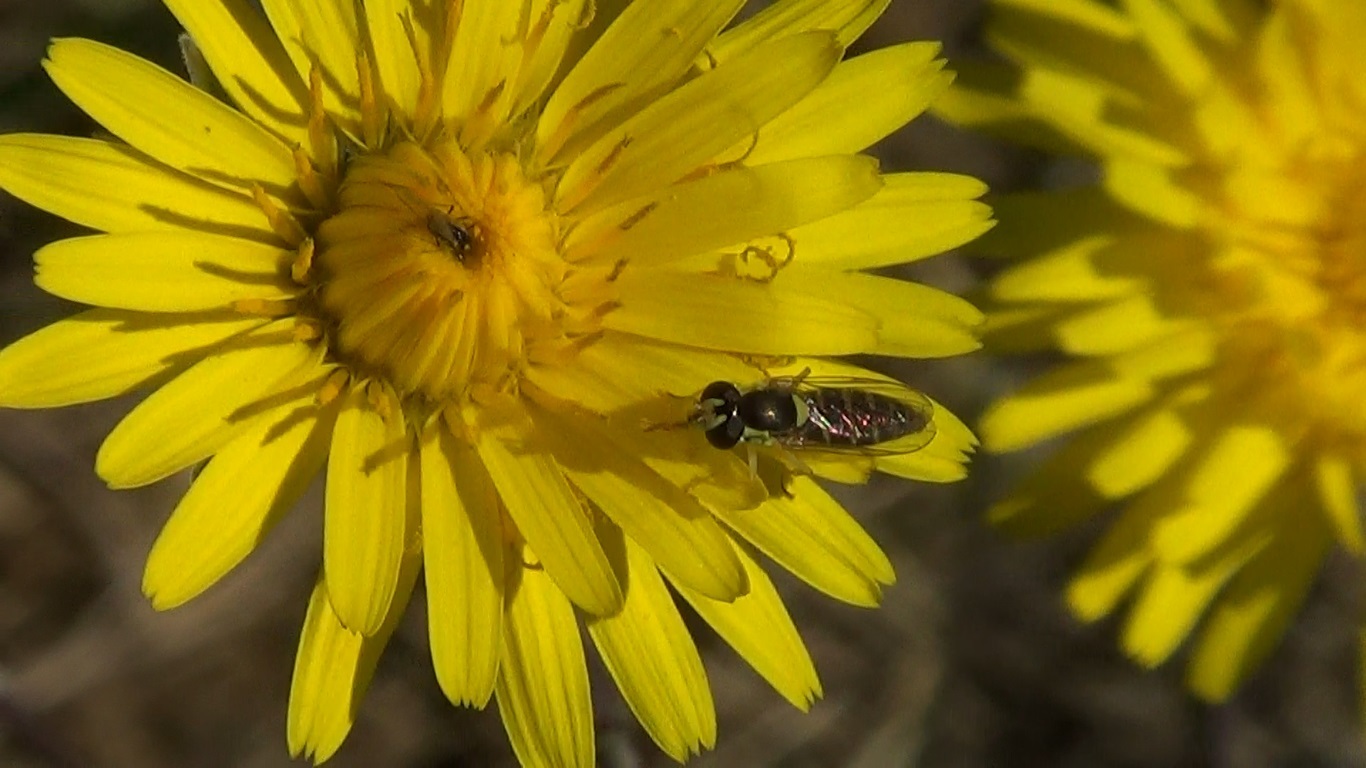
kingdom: Animalia
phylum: Arthropoda
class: Insecta
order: Diptera
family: Syrphidae
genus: Sphaerophoria
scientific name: Sphaerophoria
